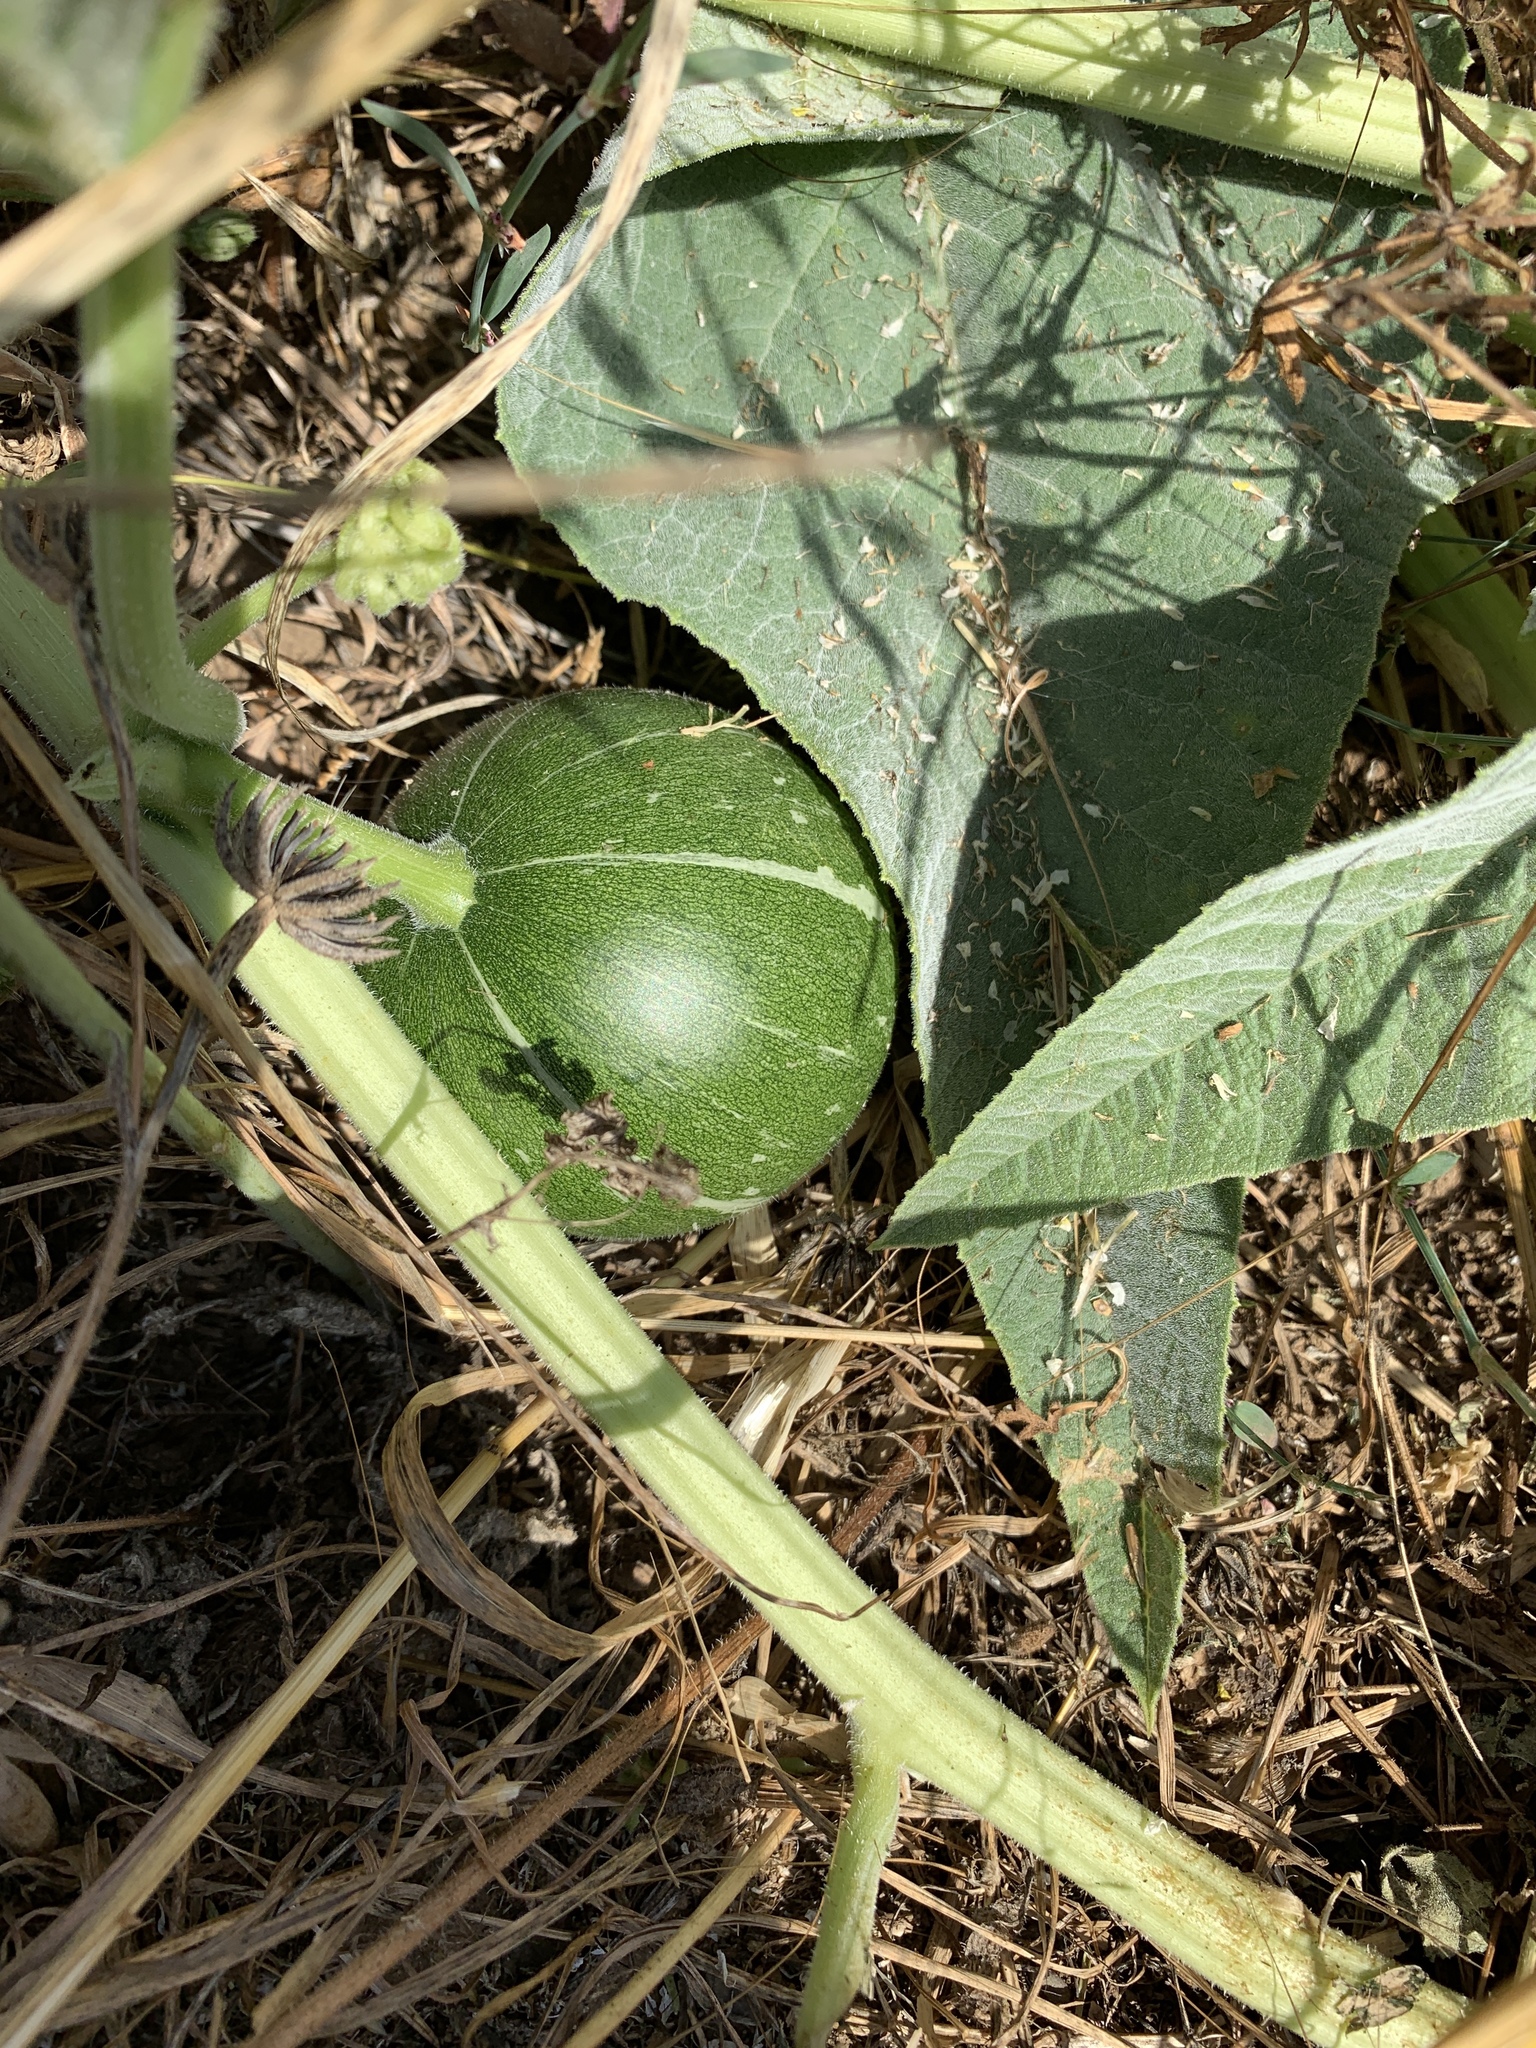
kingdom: Plantae
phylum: Tracheophyta
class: Magnoliopsida
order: Cucurbitales
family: Cucurbitaceae
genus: Cucurbita
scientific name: Cucurbita foetidissima
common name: Buffalo gourd
